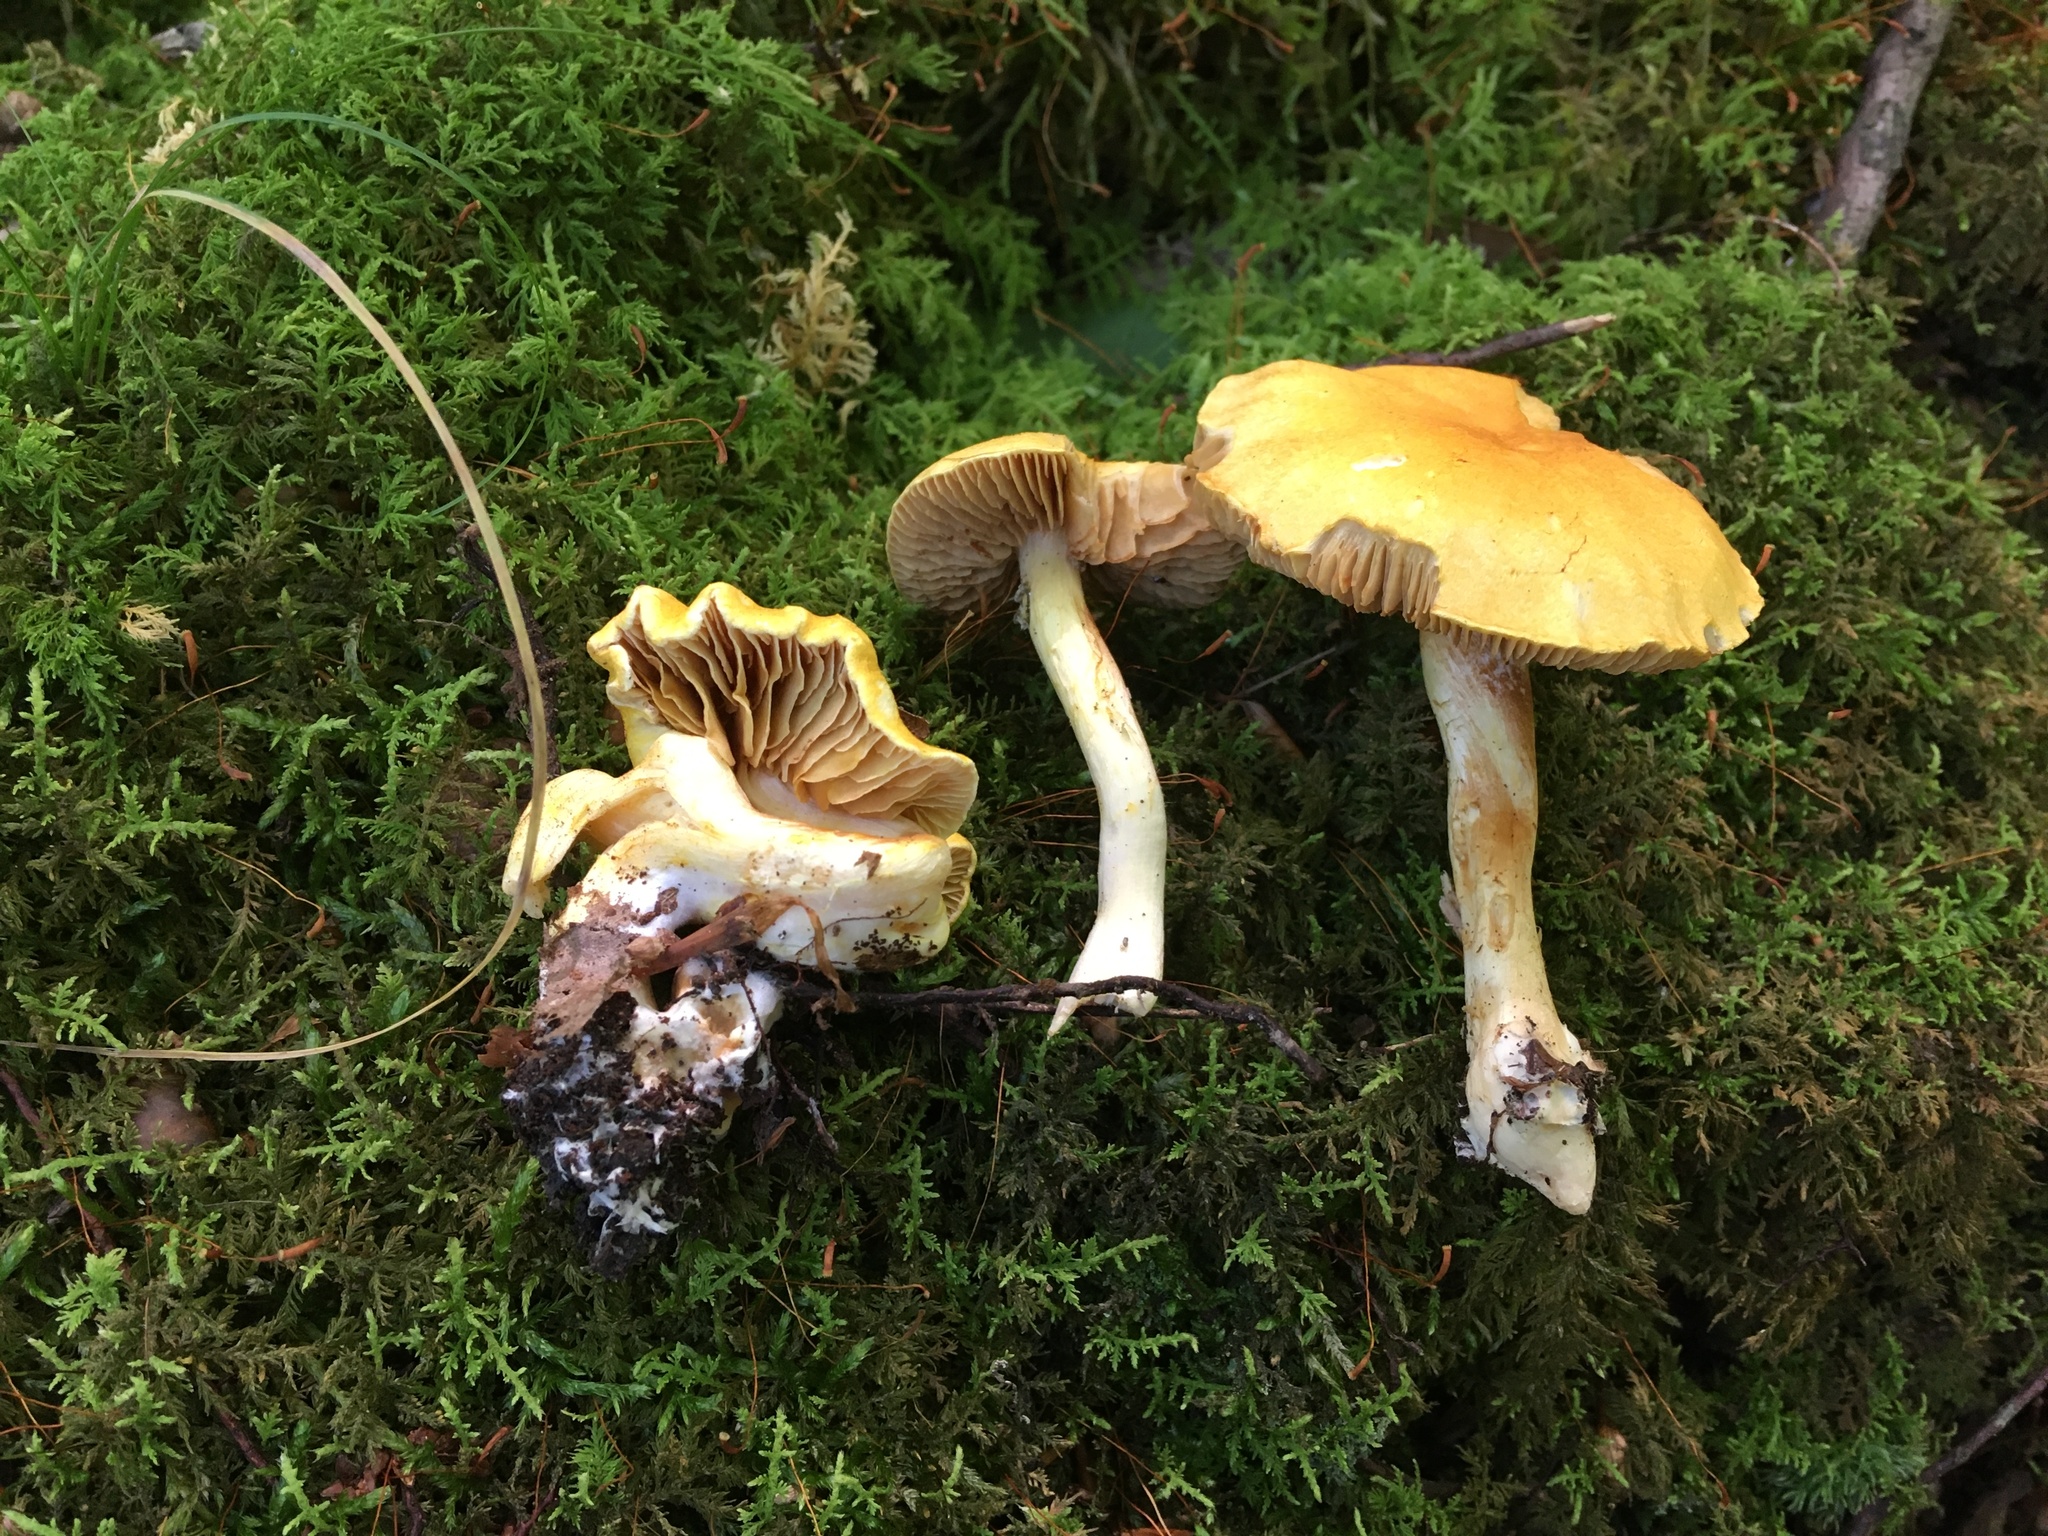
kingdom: Fungi
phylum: Basidiomycota
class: Agaricomycetes
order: Agaricales
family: Cortinariaceae
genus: Cortinarius
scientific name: Cortinarius lewisii
